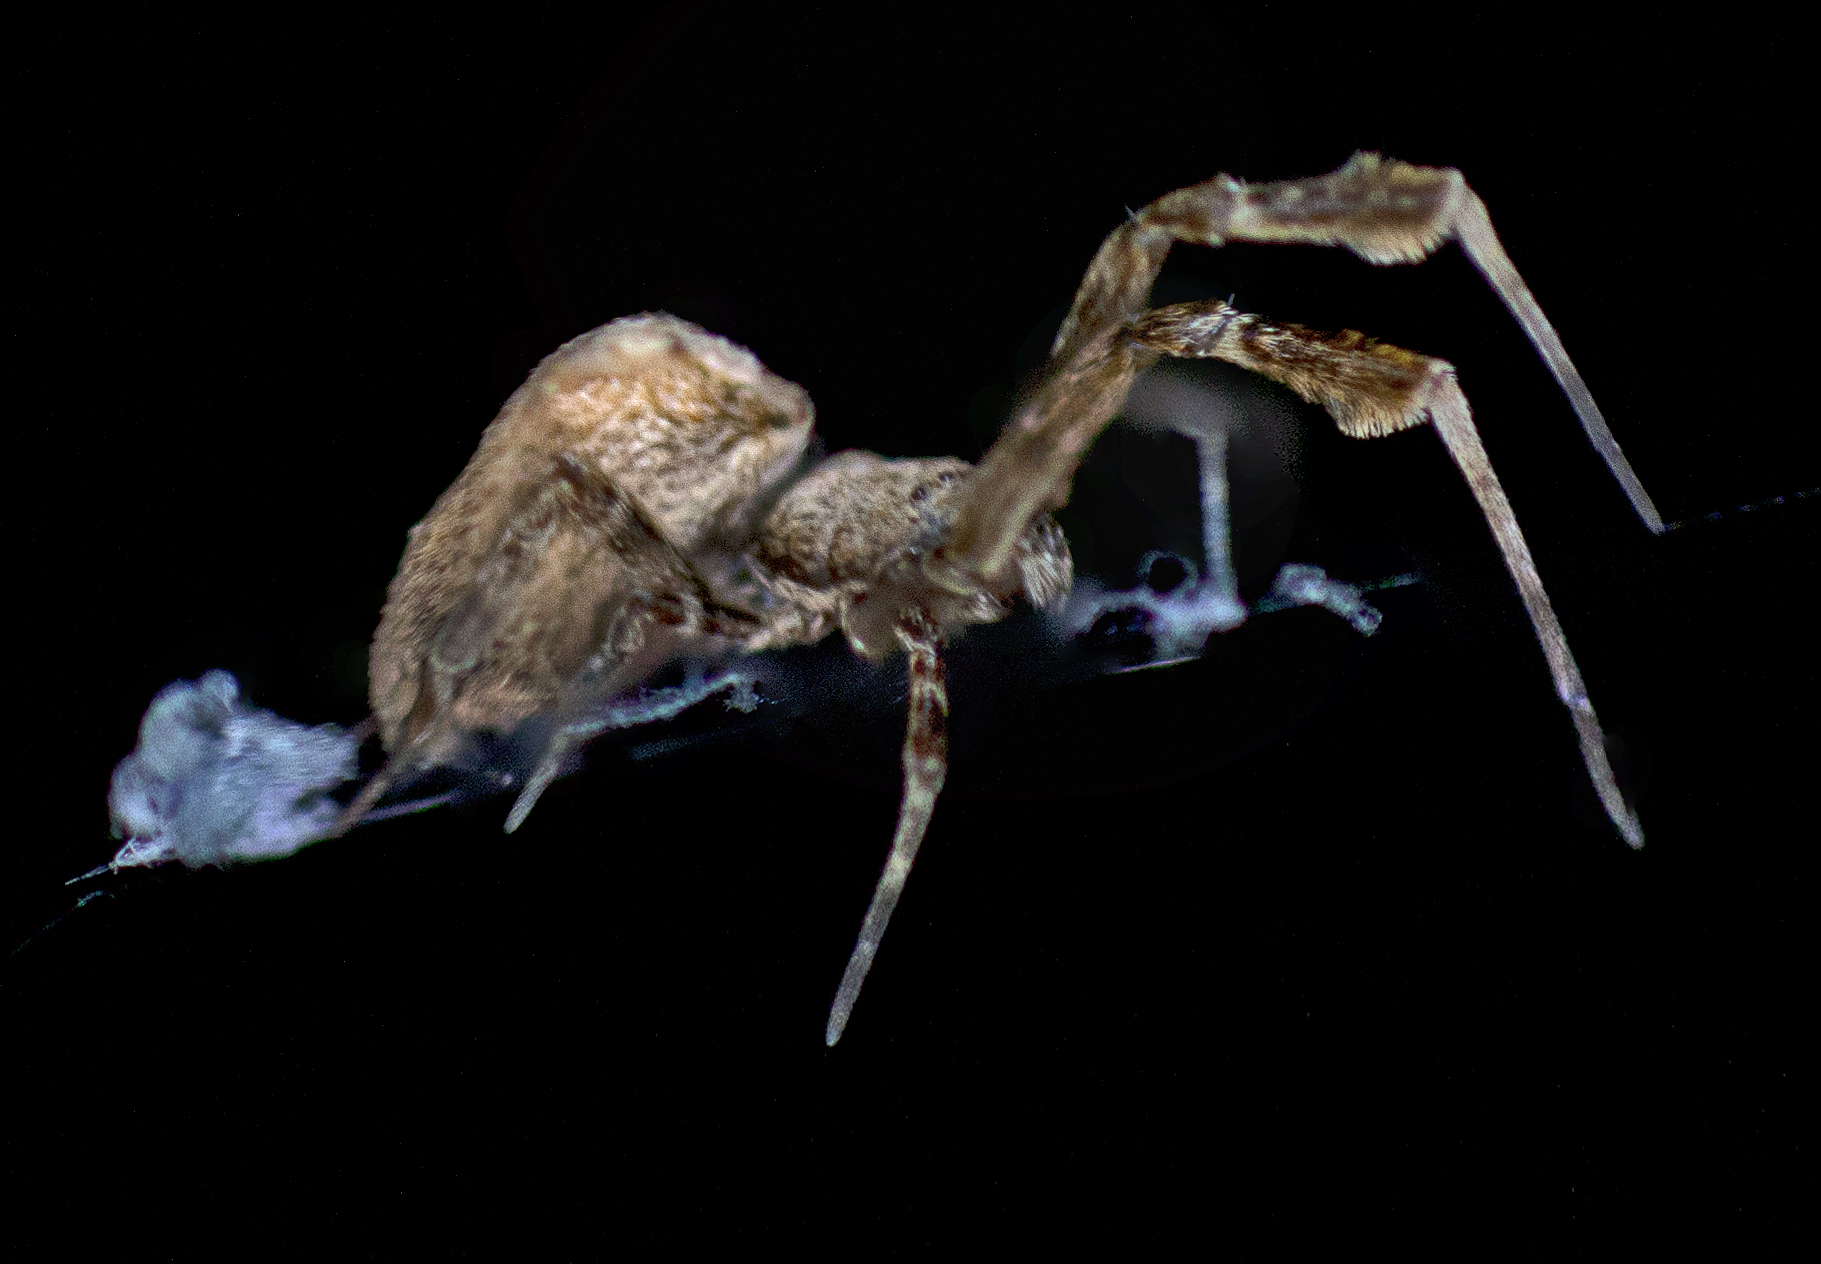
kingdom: Animalia
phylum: Arthropoda
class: Arachnida
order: Araneae
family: Uloboridae
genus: Uloborus
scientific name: Uloborus barbipes
